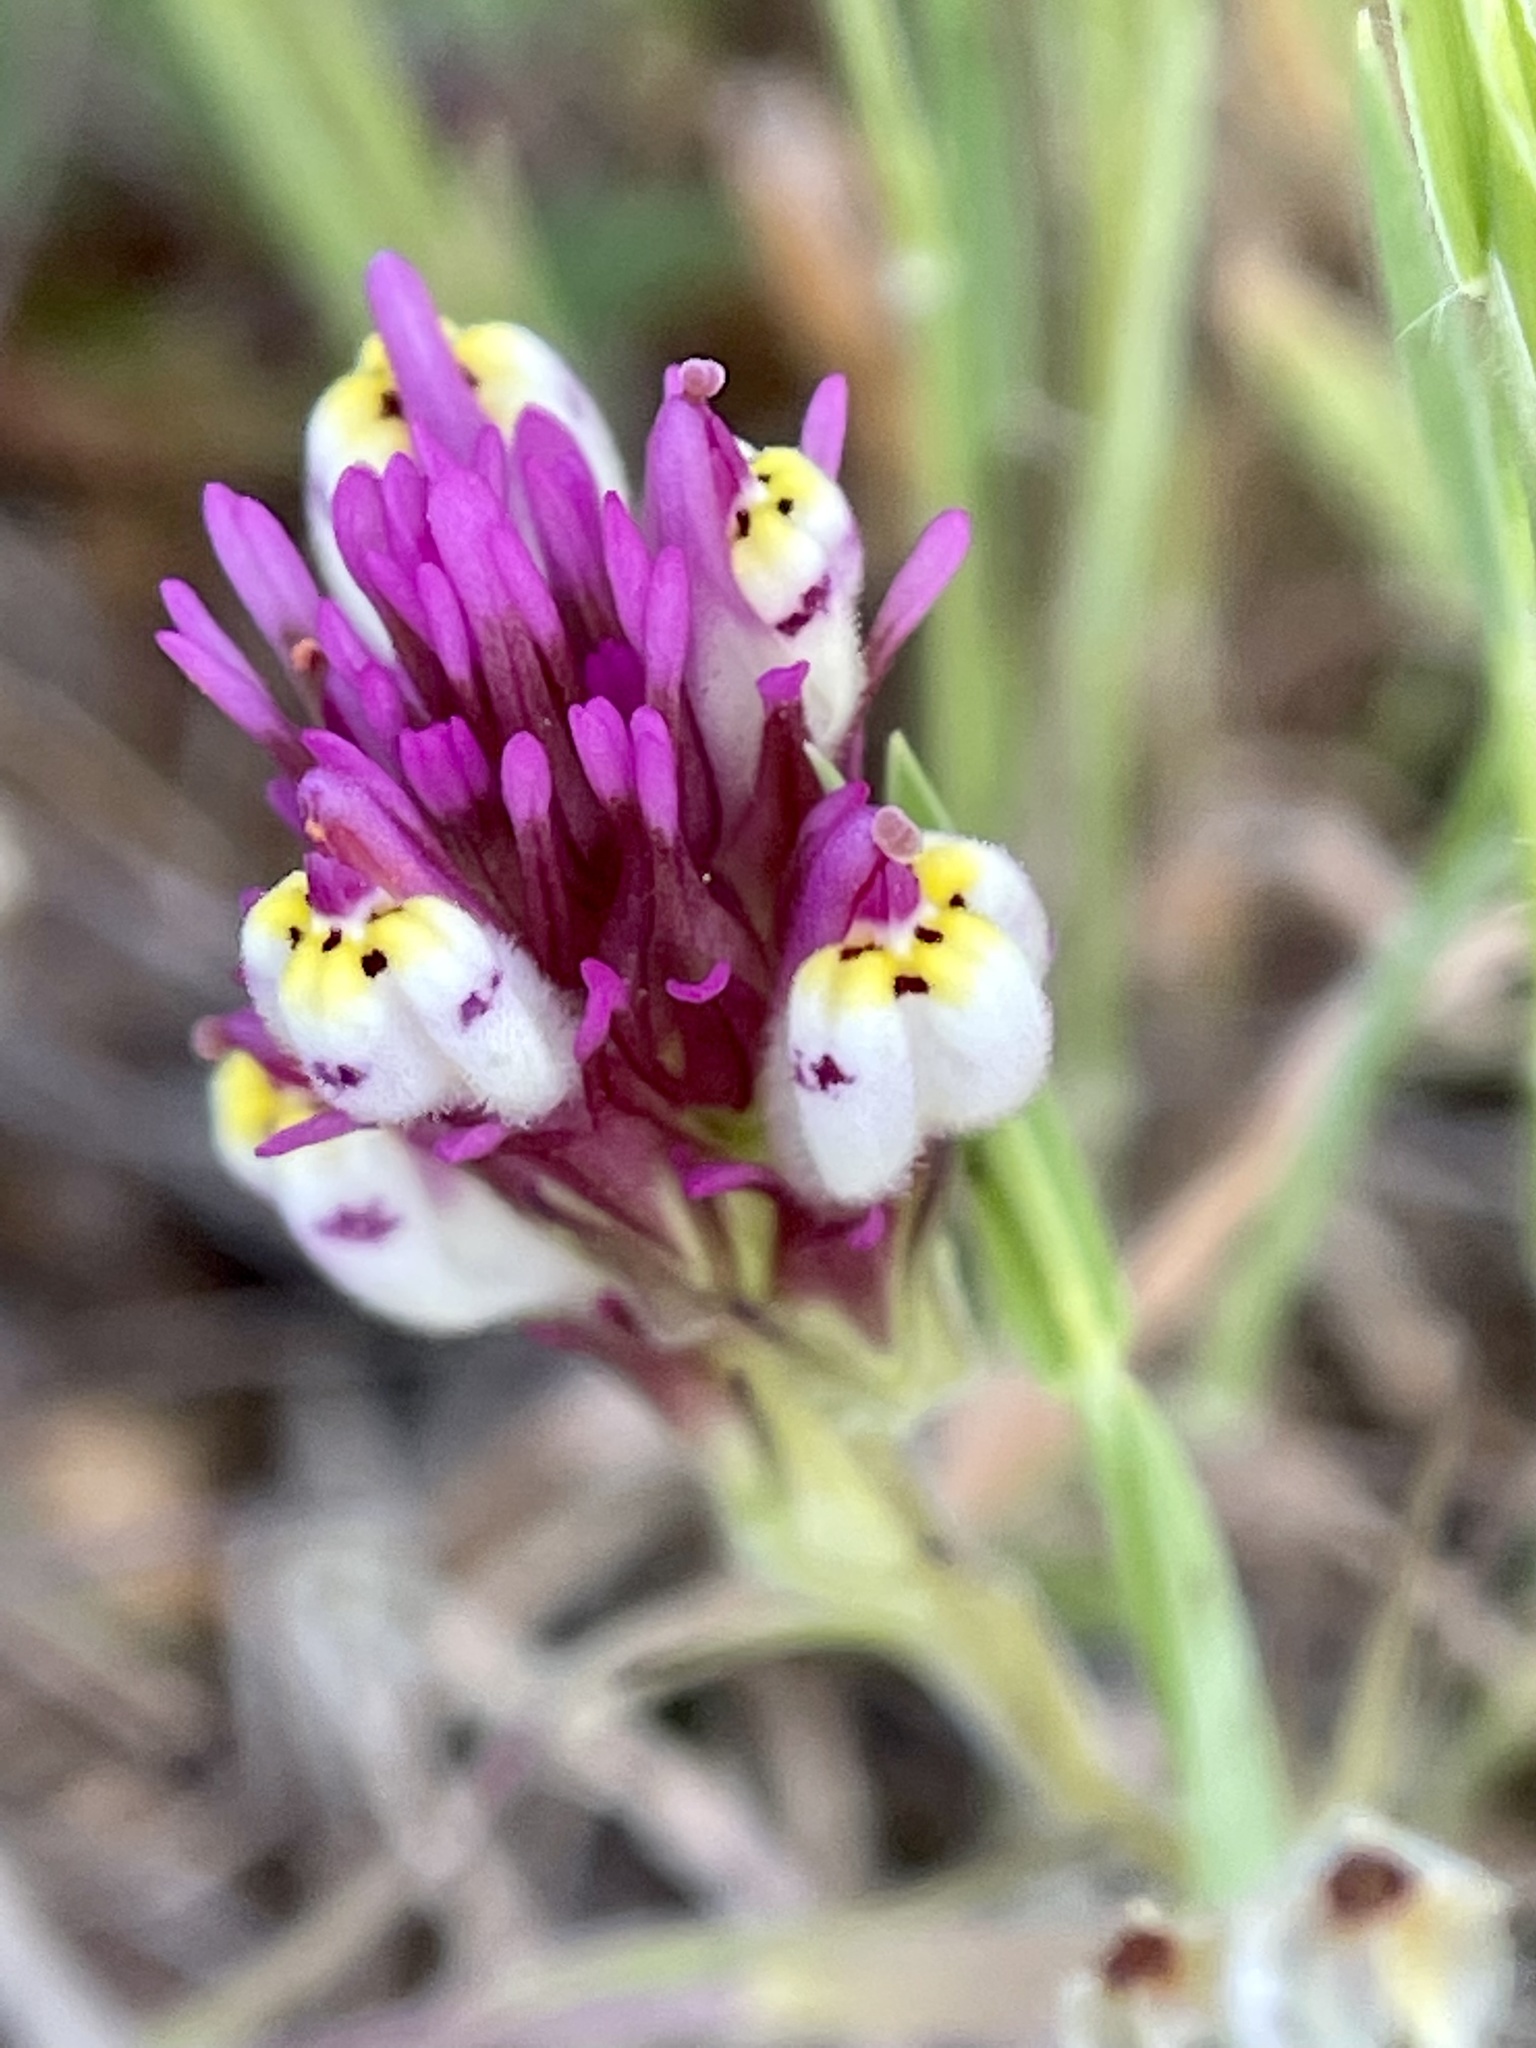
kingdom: Plantae
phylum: Tracheophyta
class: Magnoliopsida
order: Lamiales
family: Orobanchaceae
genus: Castilleja
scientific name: Castilleja densiflora
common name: Dense-flower indian paintbrush
